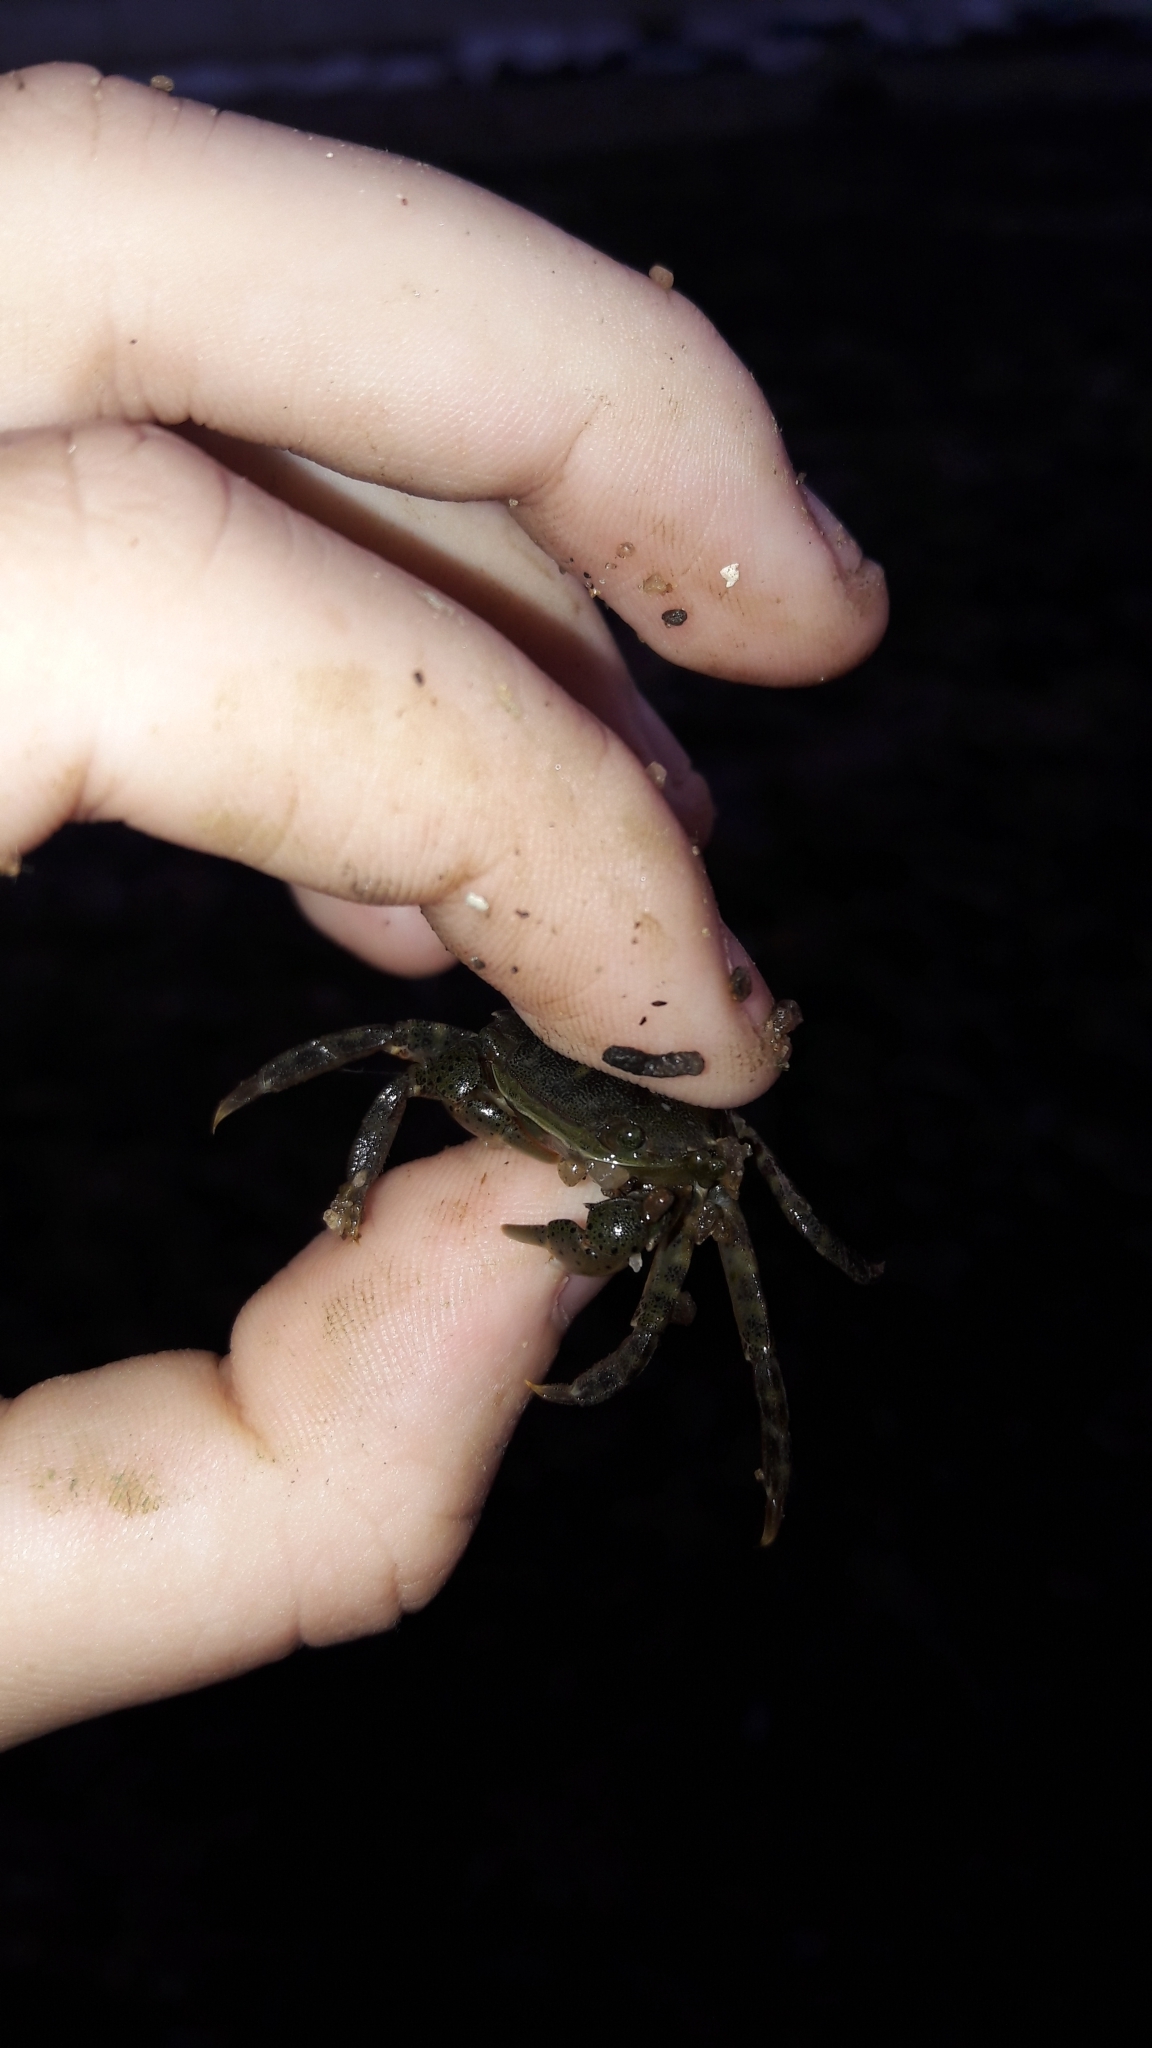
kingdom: Animalia
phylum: Arthropoda
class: Malacostraca
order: Decapoda
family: Varunidae
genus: Hemigrapsus
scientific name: Hemigrapsus sanguineus
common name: Asian shore crab
